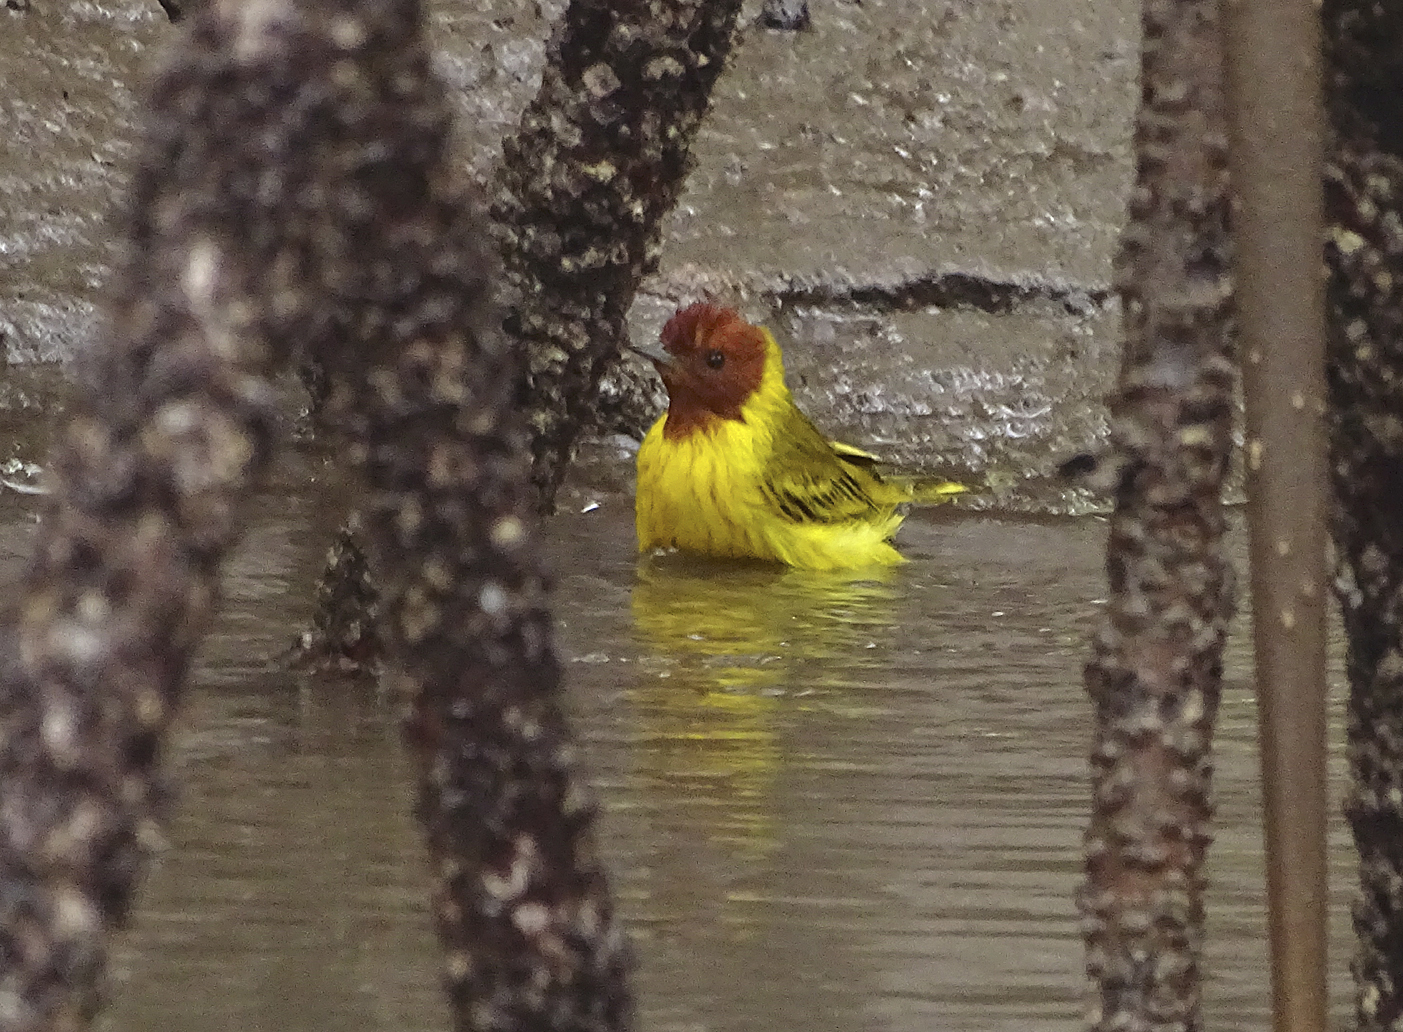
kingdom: Animalia
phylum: Chordata
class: Aves
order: Passeriformes
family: Parulidae
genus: Setophaga
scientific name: Setophaga petechia
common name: Yellow warbler
